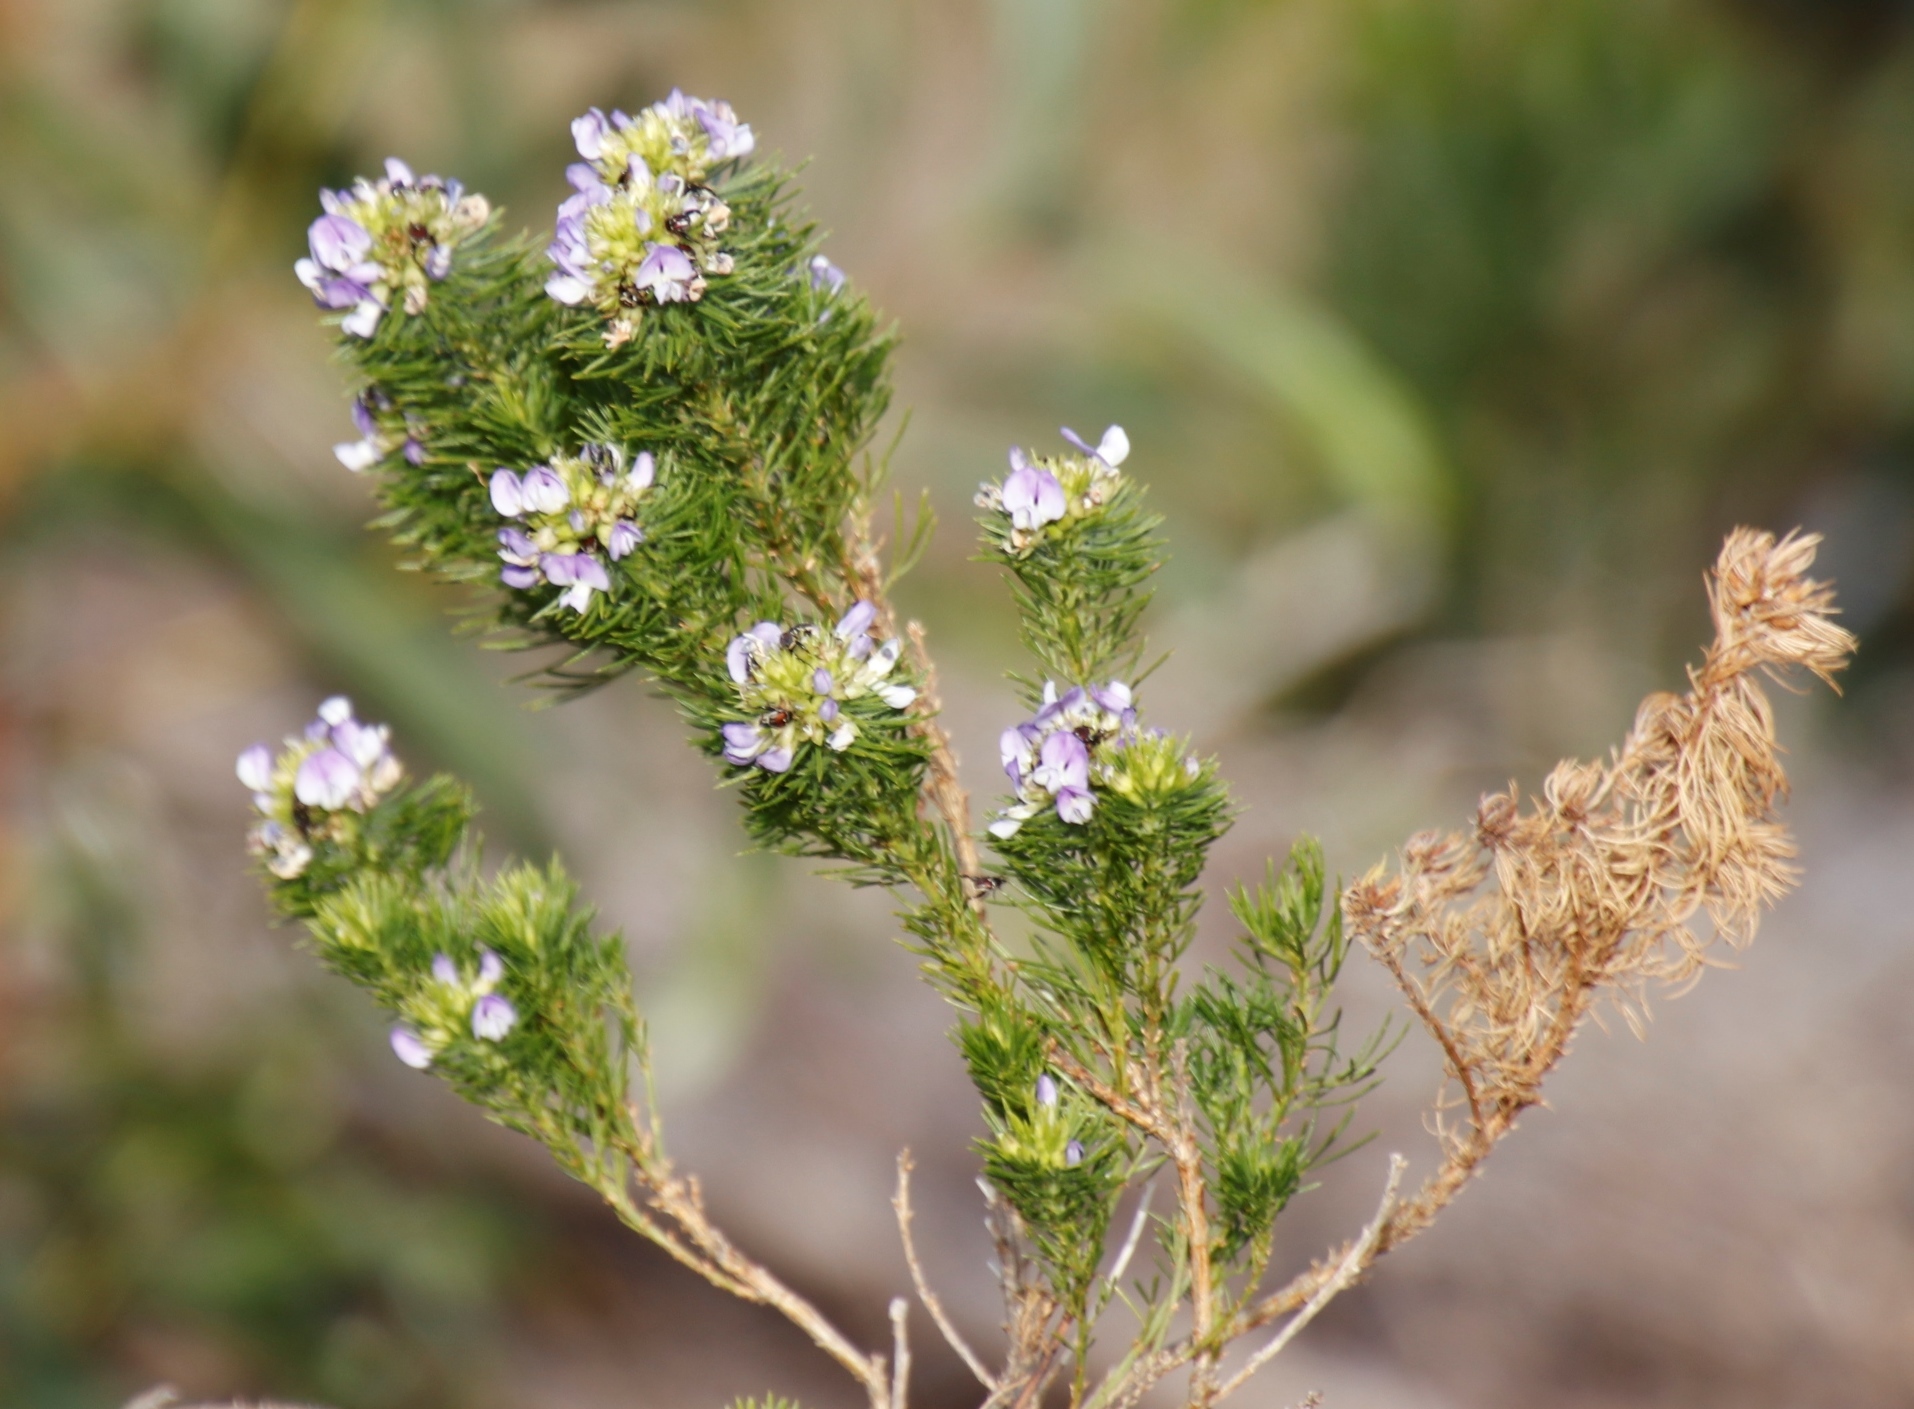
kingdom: Plantae
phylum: Tracheophyta
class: Magnoliopsida
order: Fabales
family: Fabaceae
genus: Psoralea
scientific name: Psoralea pinnata
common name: African scurfpea
